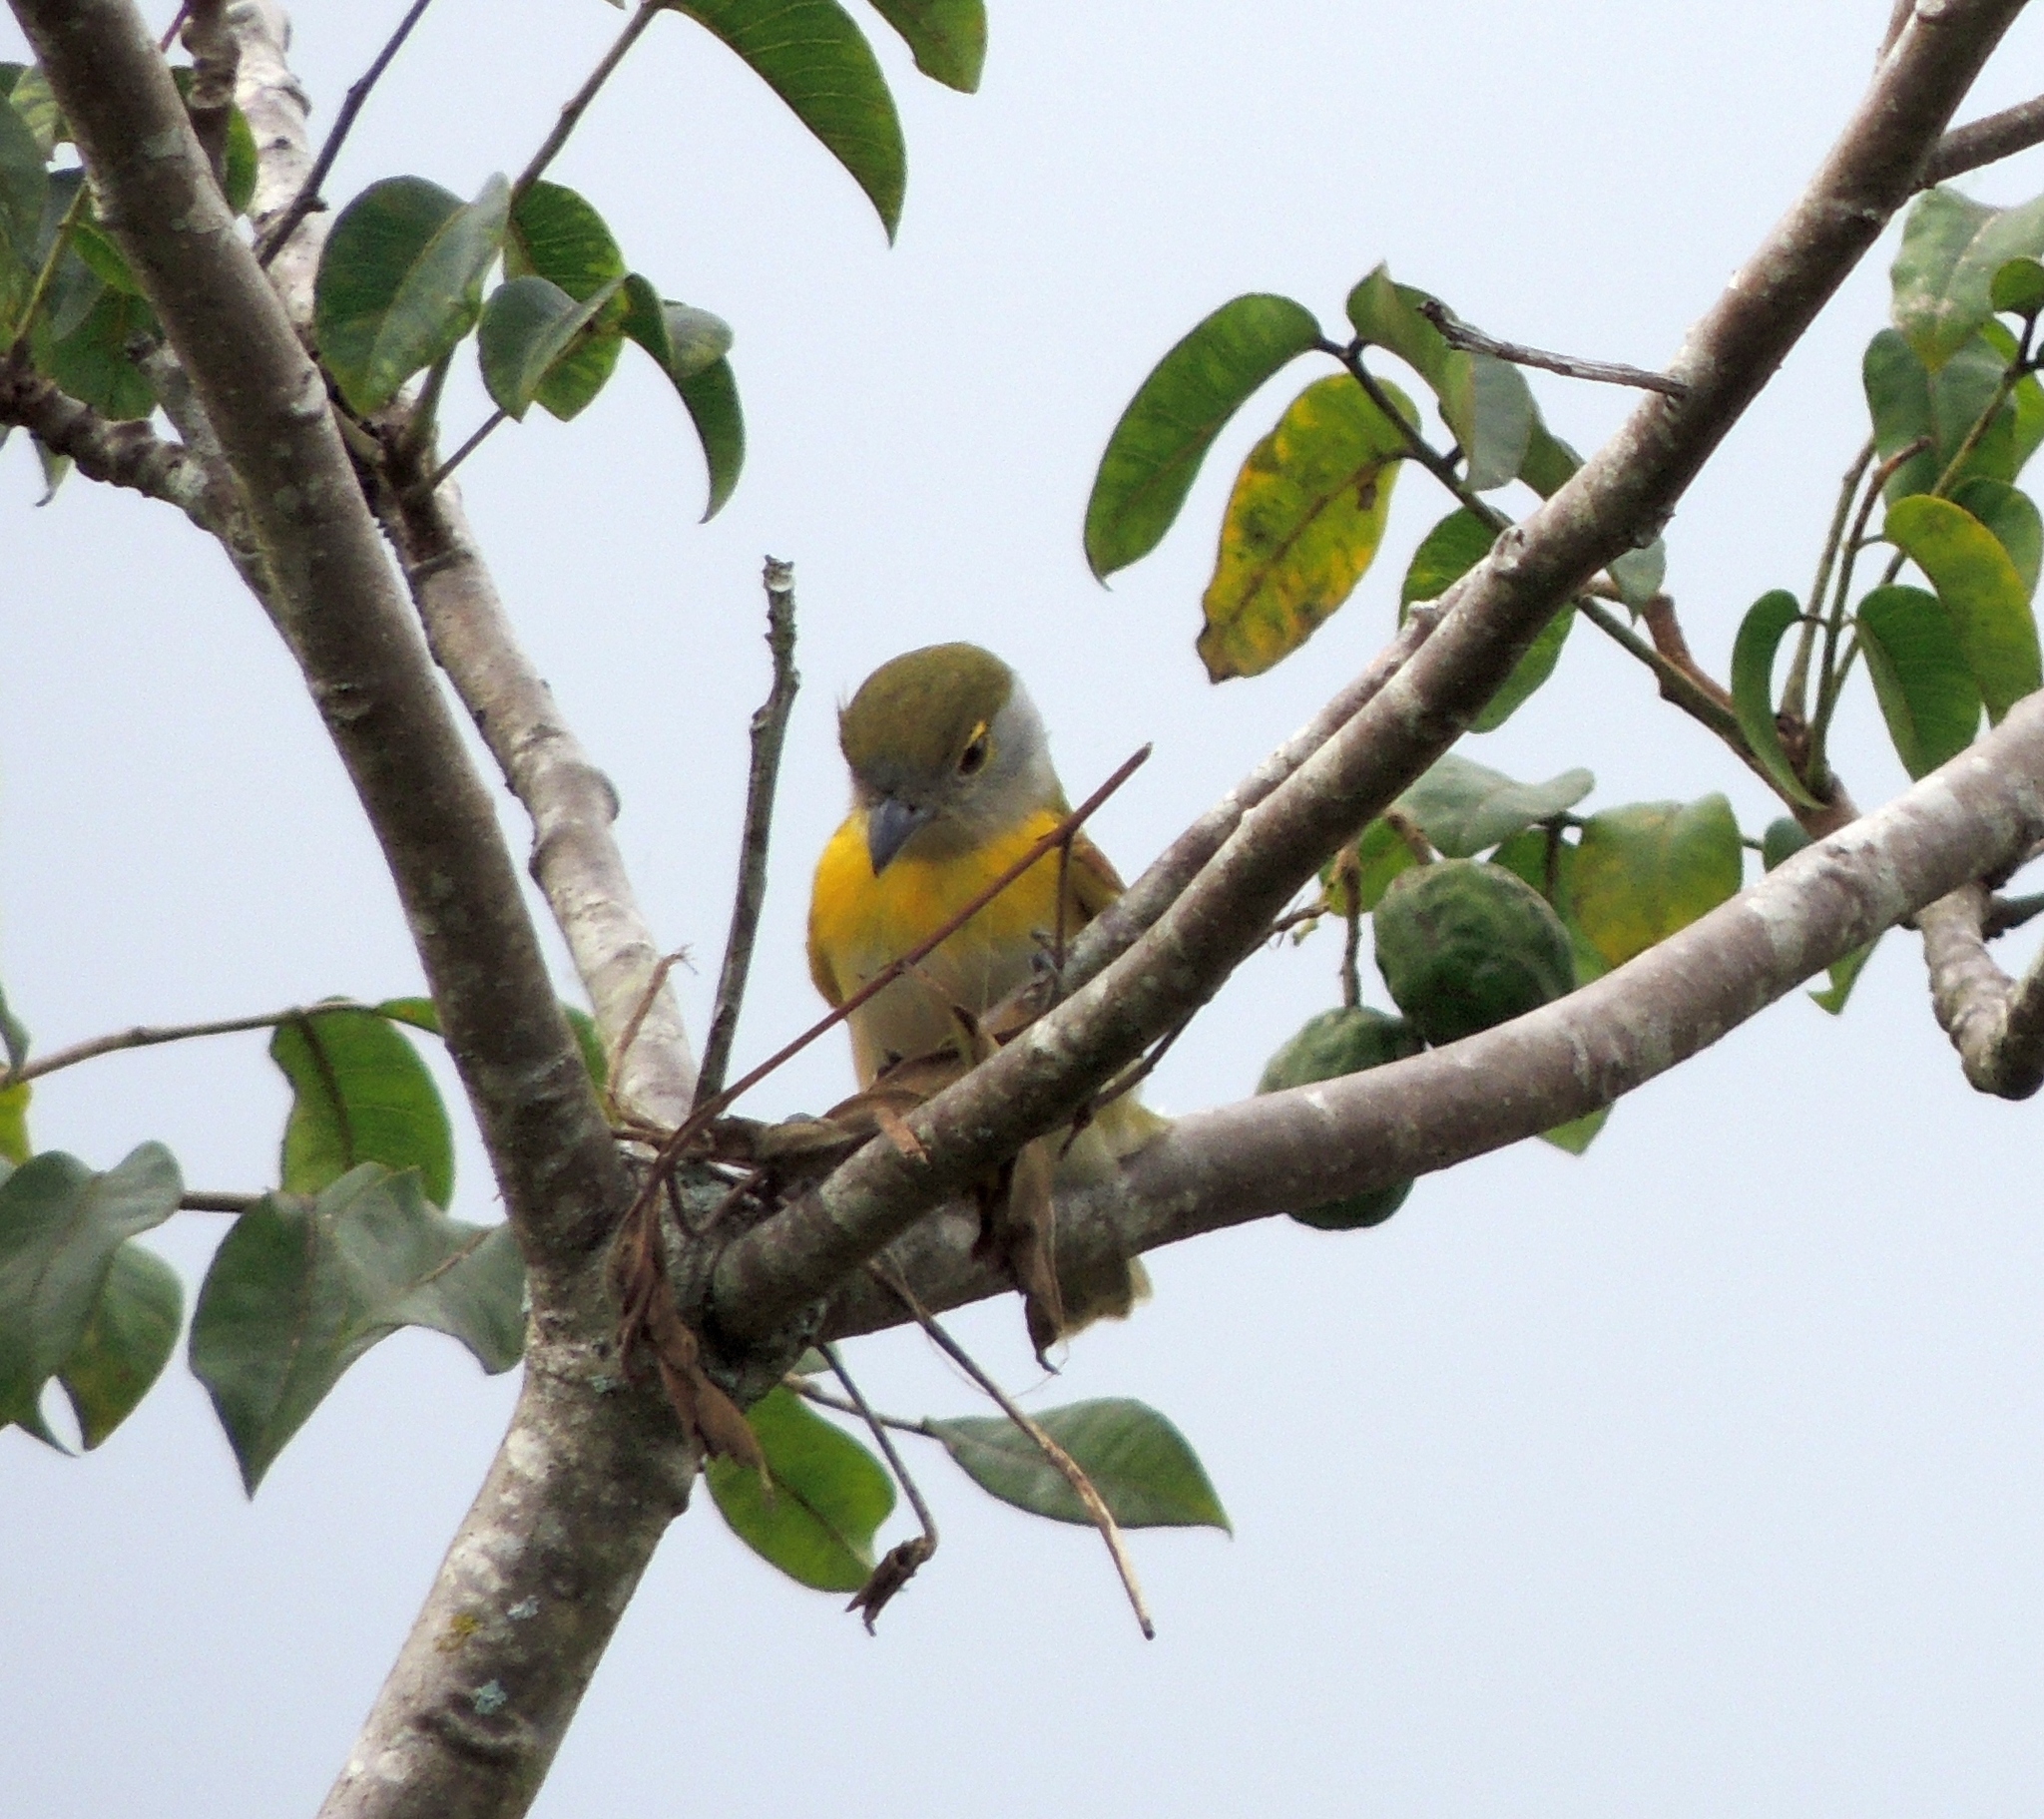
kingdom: Animalia
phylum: Chordata
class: Aves
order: Passeriformes
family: Cotingidae
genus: Pachyramphus
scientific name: Pachyramphus viridis
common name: Green-backed becard
